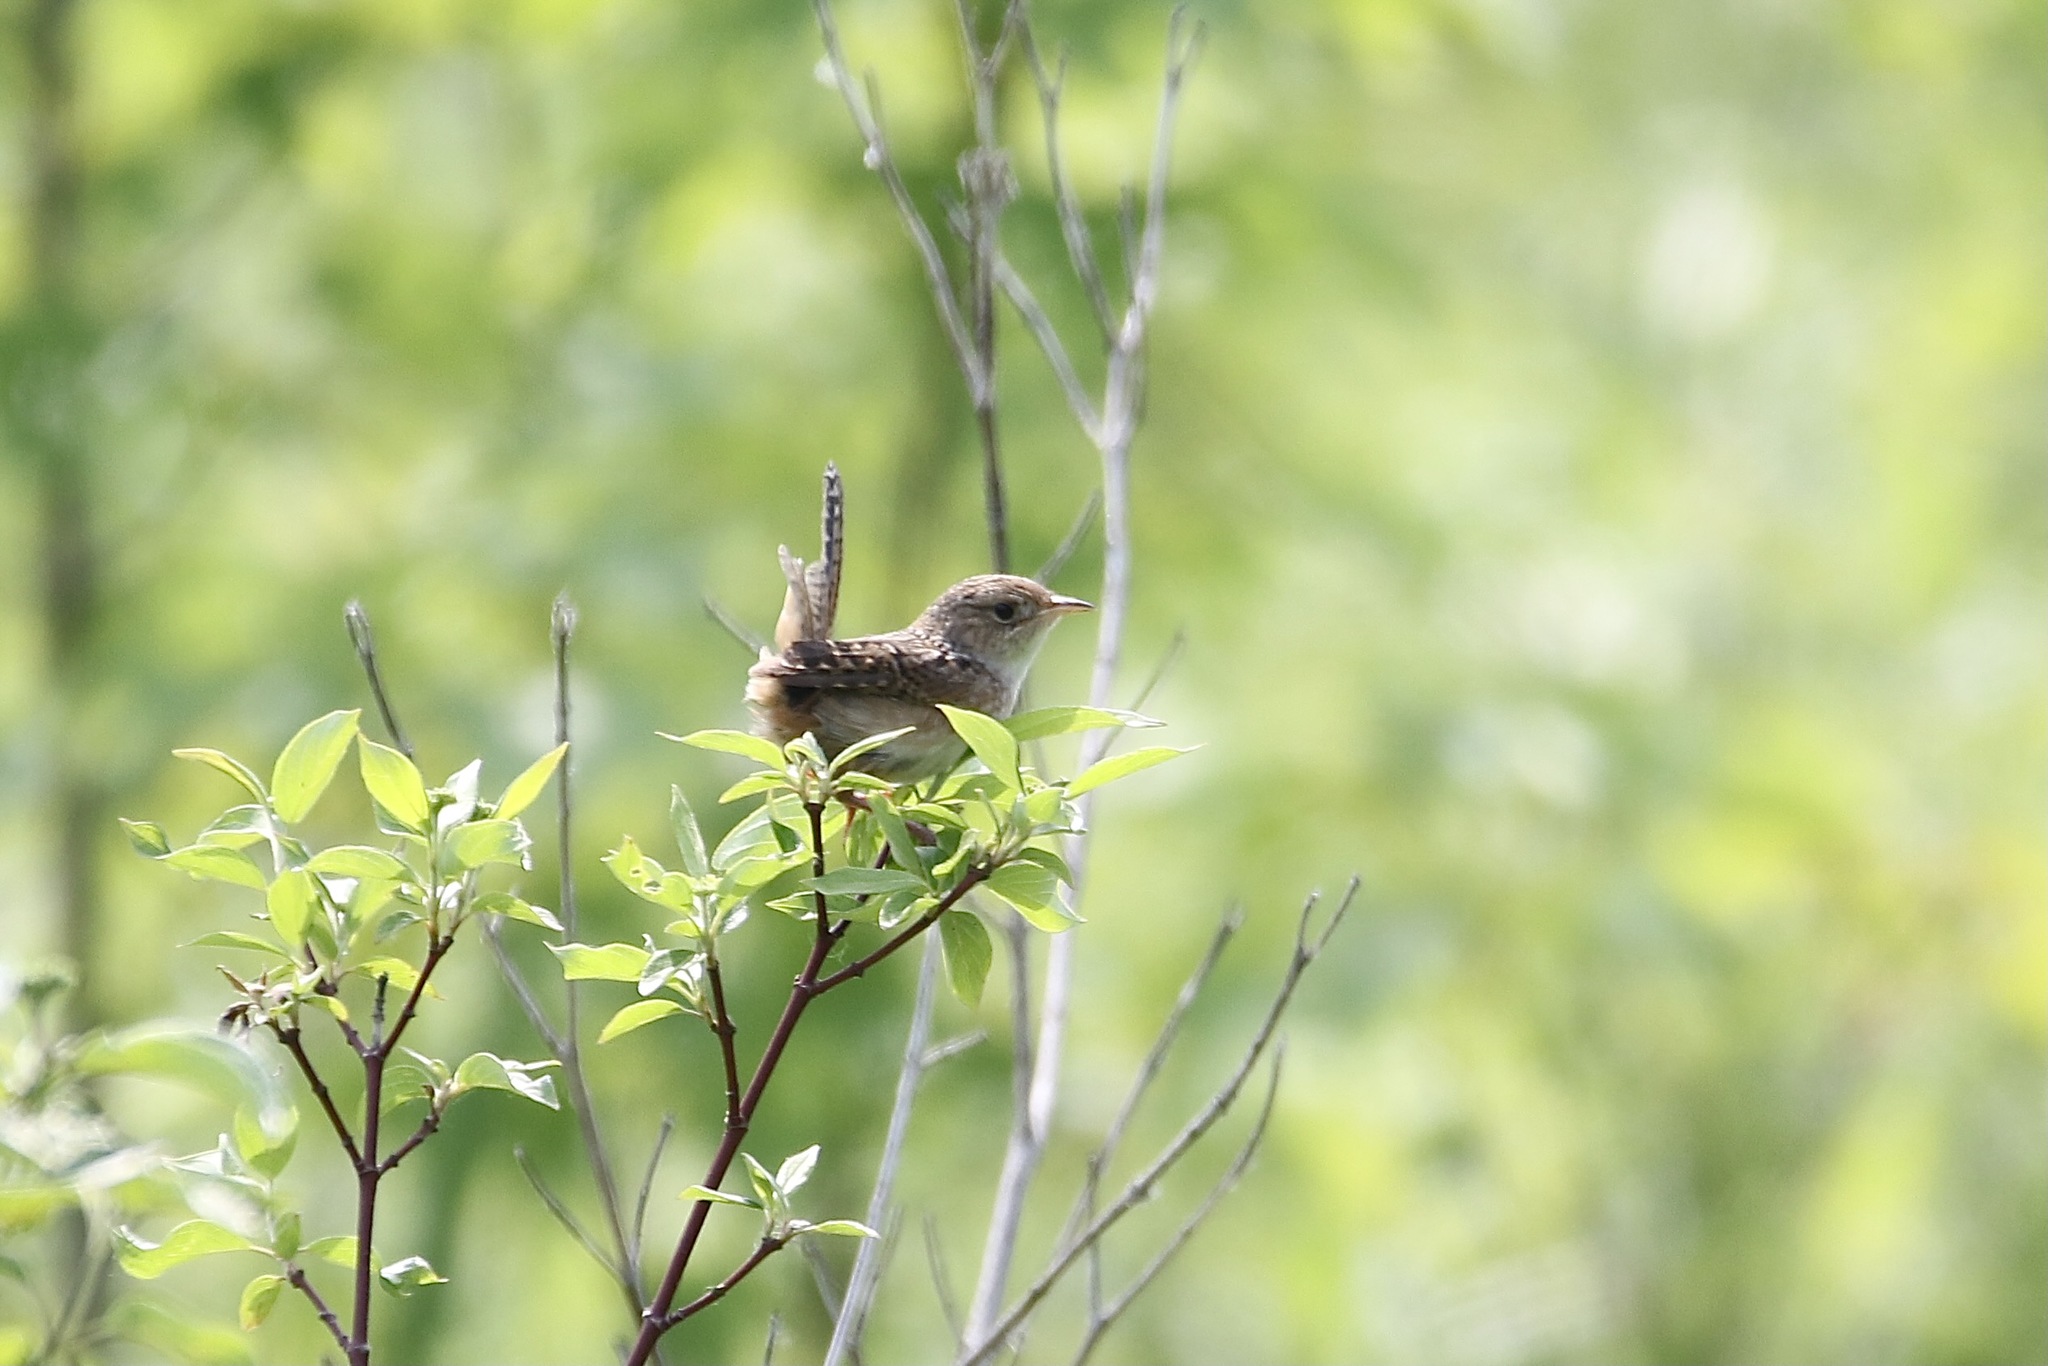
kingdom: Animalia
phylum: Chordata
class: Aves
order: Passeriformes
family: Troglodytidae
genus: Cistothorus
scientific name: Cistothorus platensis
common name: Sedge wren
